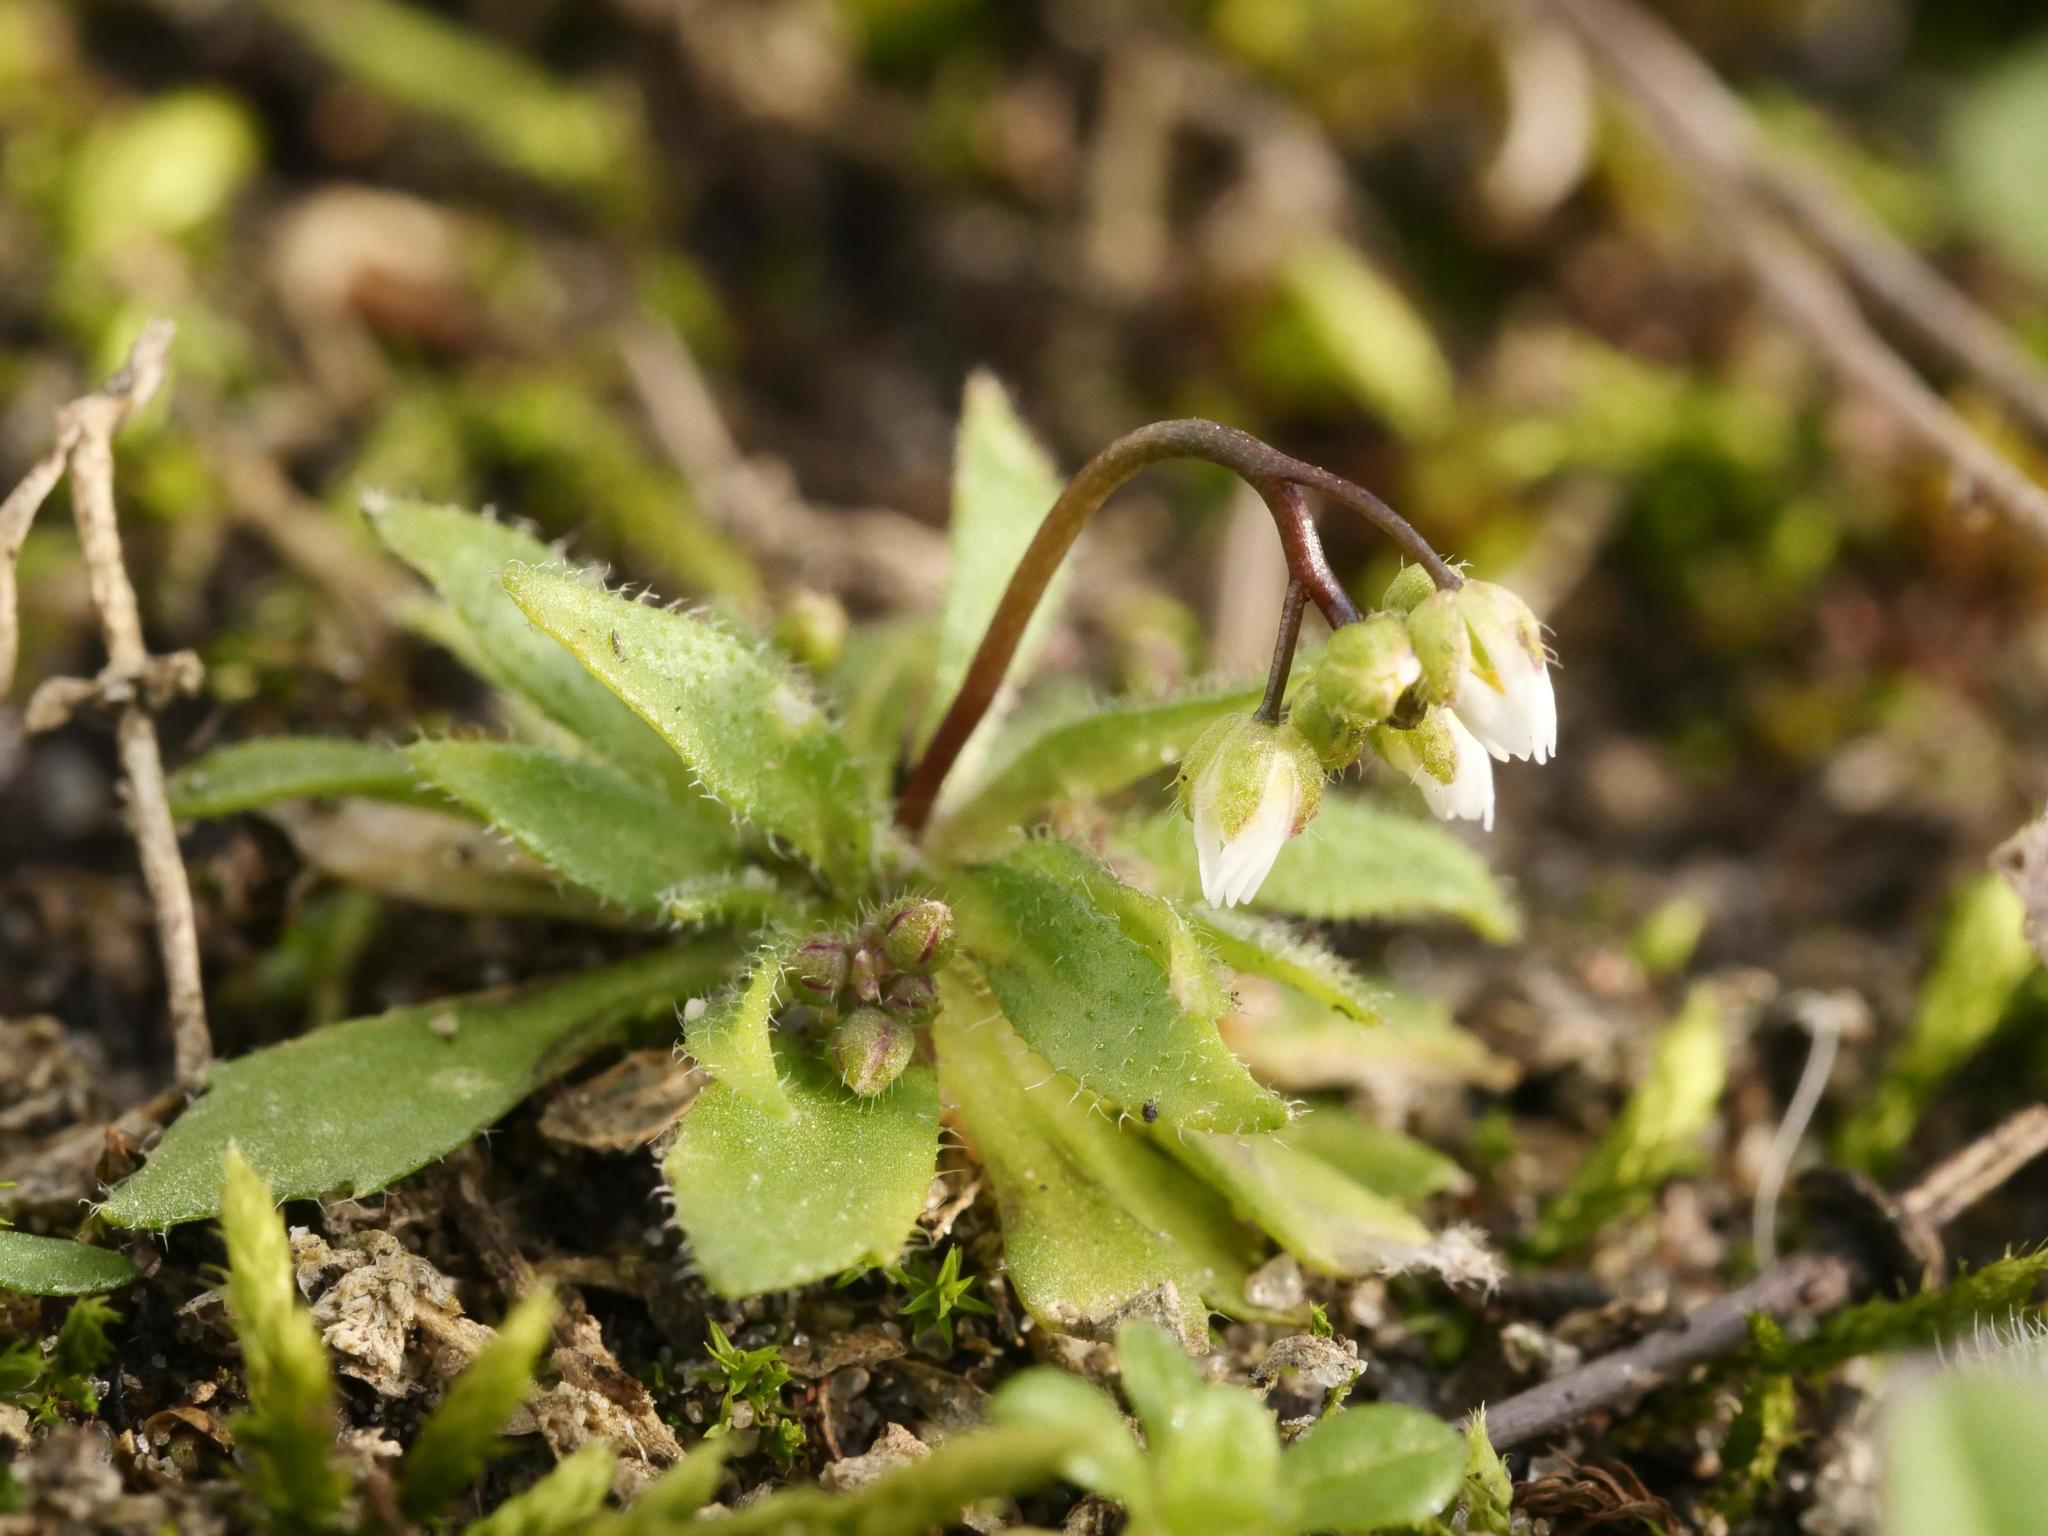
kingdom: Plantae
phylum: Tracheophyta
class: Magnoliopsida
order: Brassicales
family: Brassicaceae
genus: Draba
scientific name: Draba verna
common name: Spring draba
